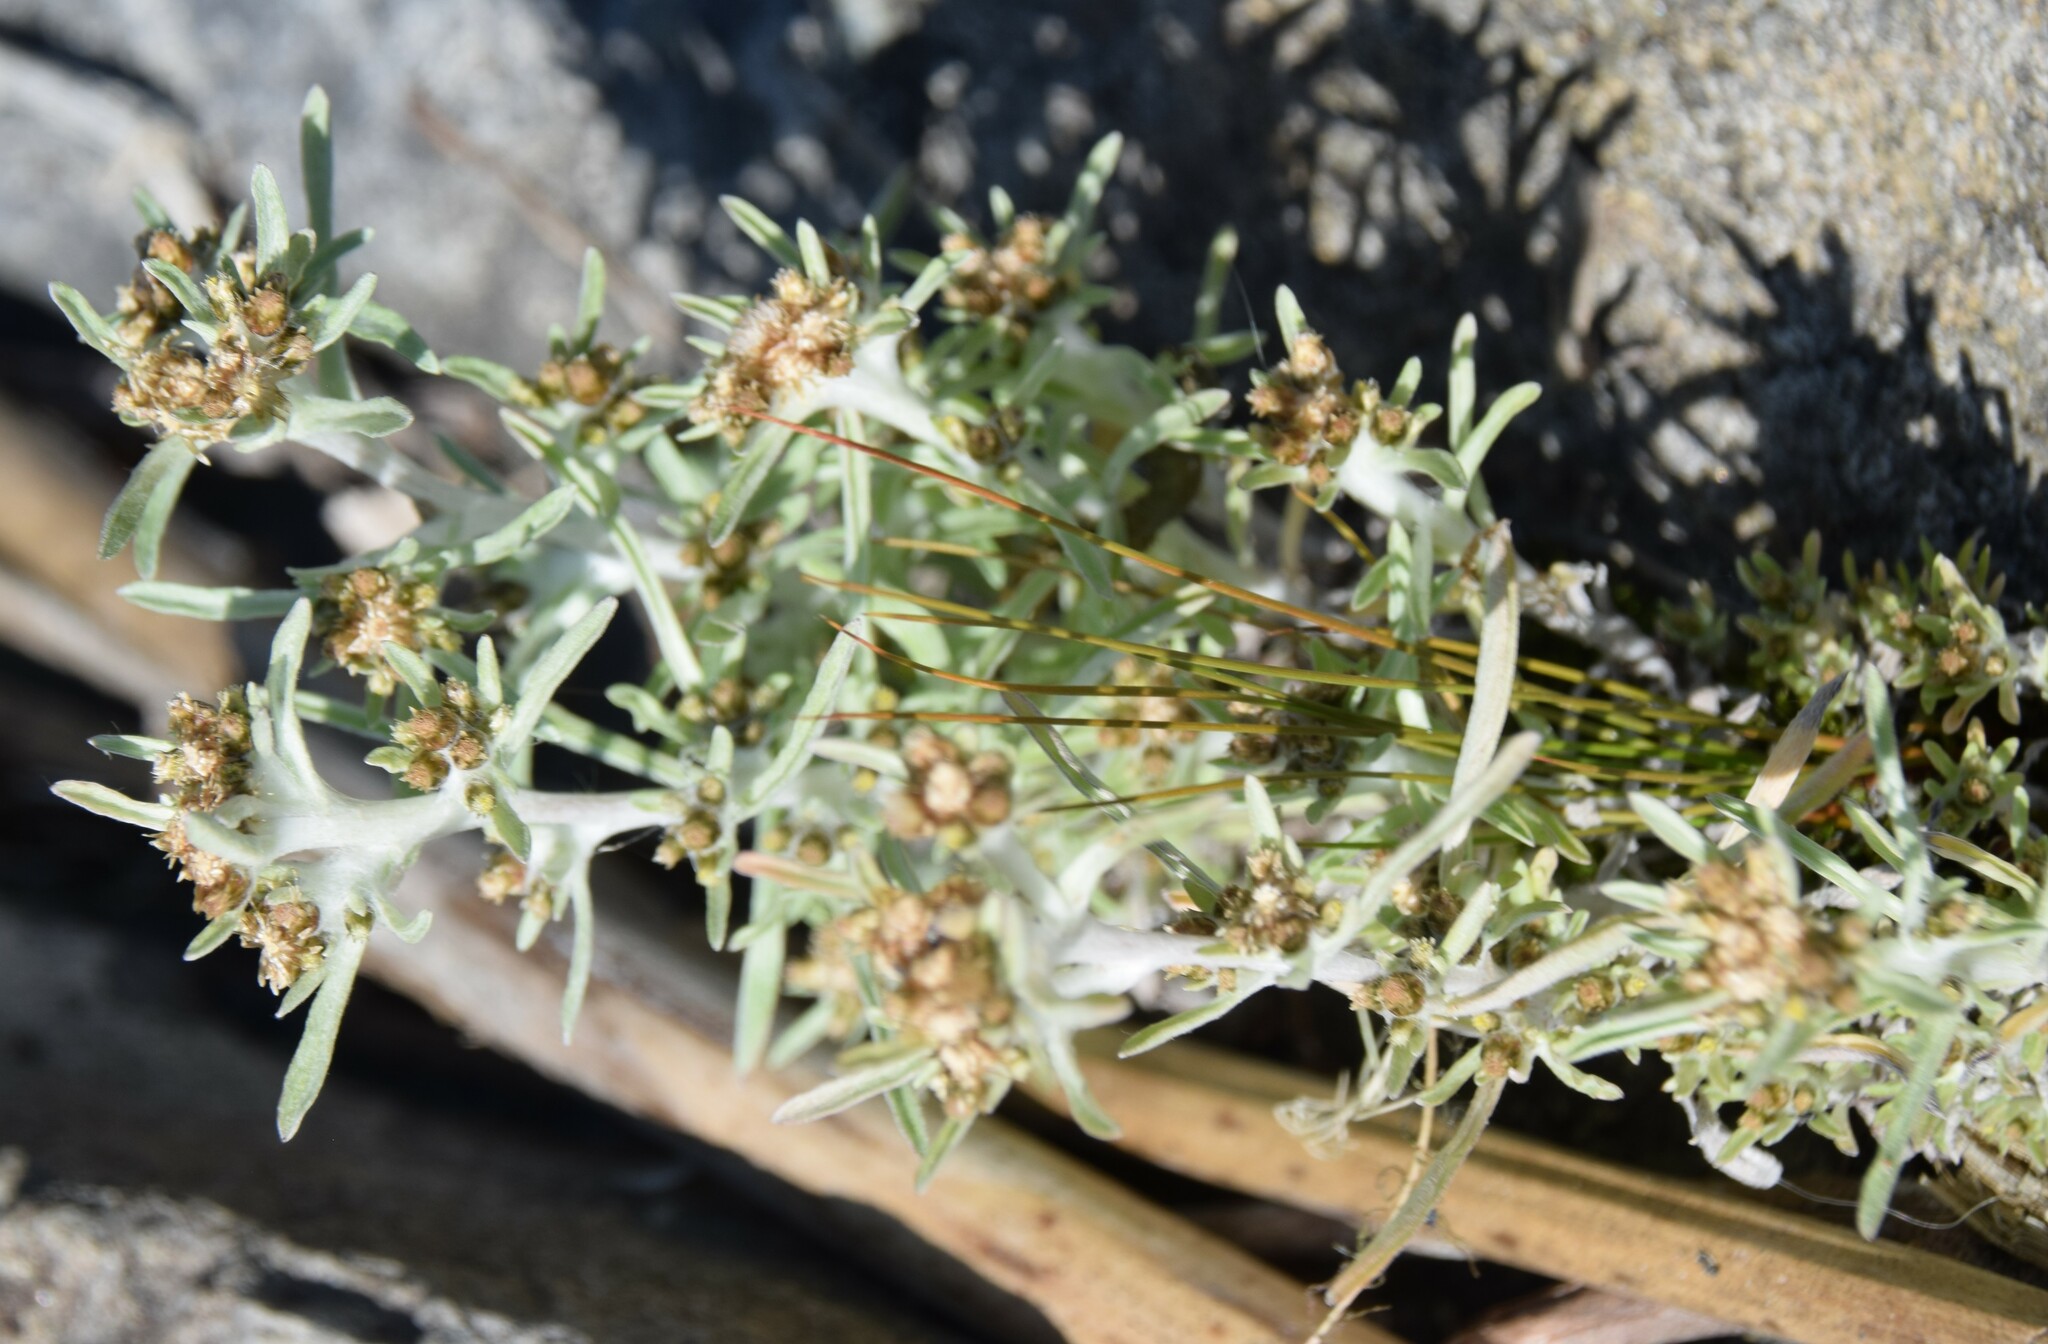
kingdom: Plantae
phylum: Tracheophyta
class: Magnoliopsida
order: Asterales
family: Asteraceae
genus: Gnaphalium
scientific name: Gnaphalium uliginosum
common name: Marsh cudweed
